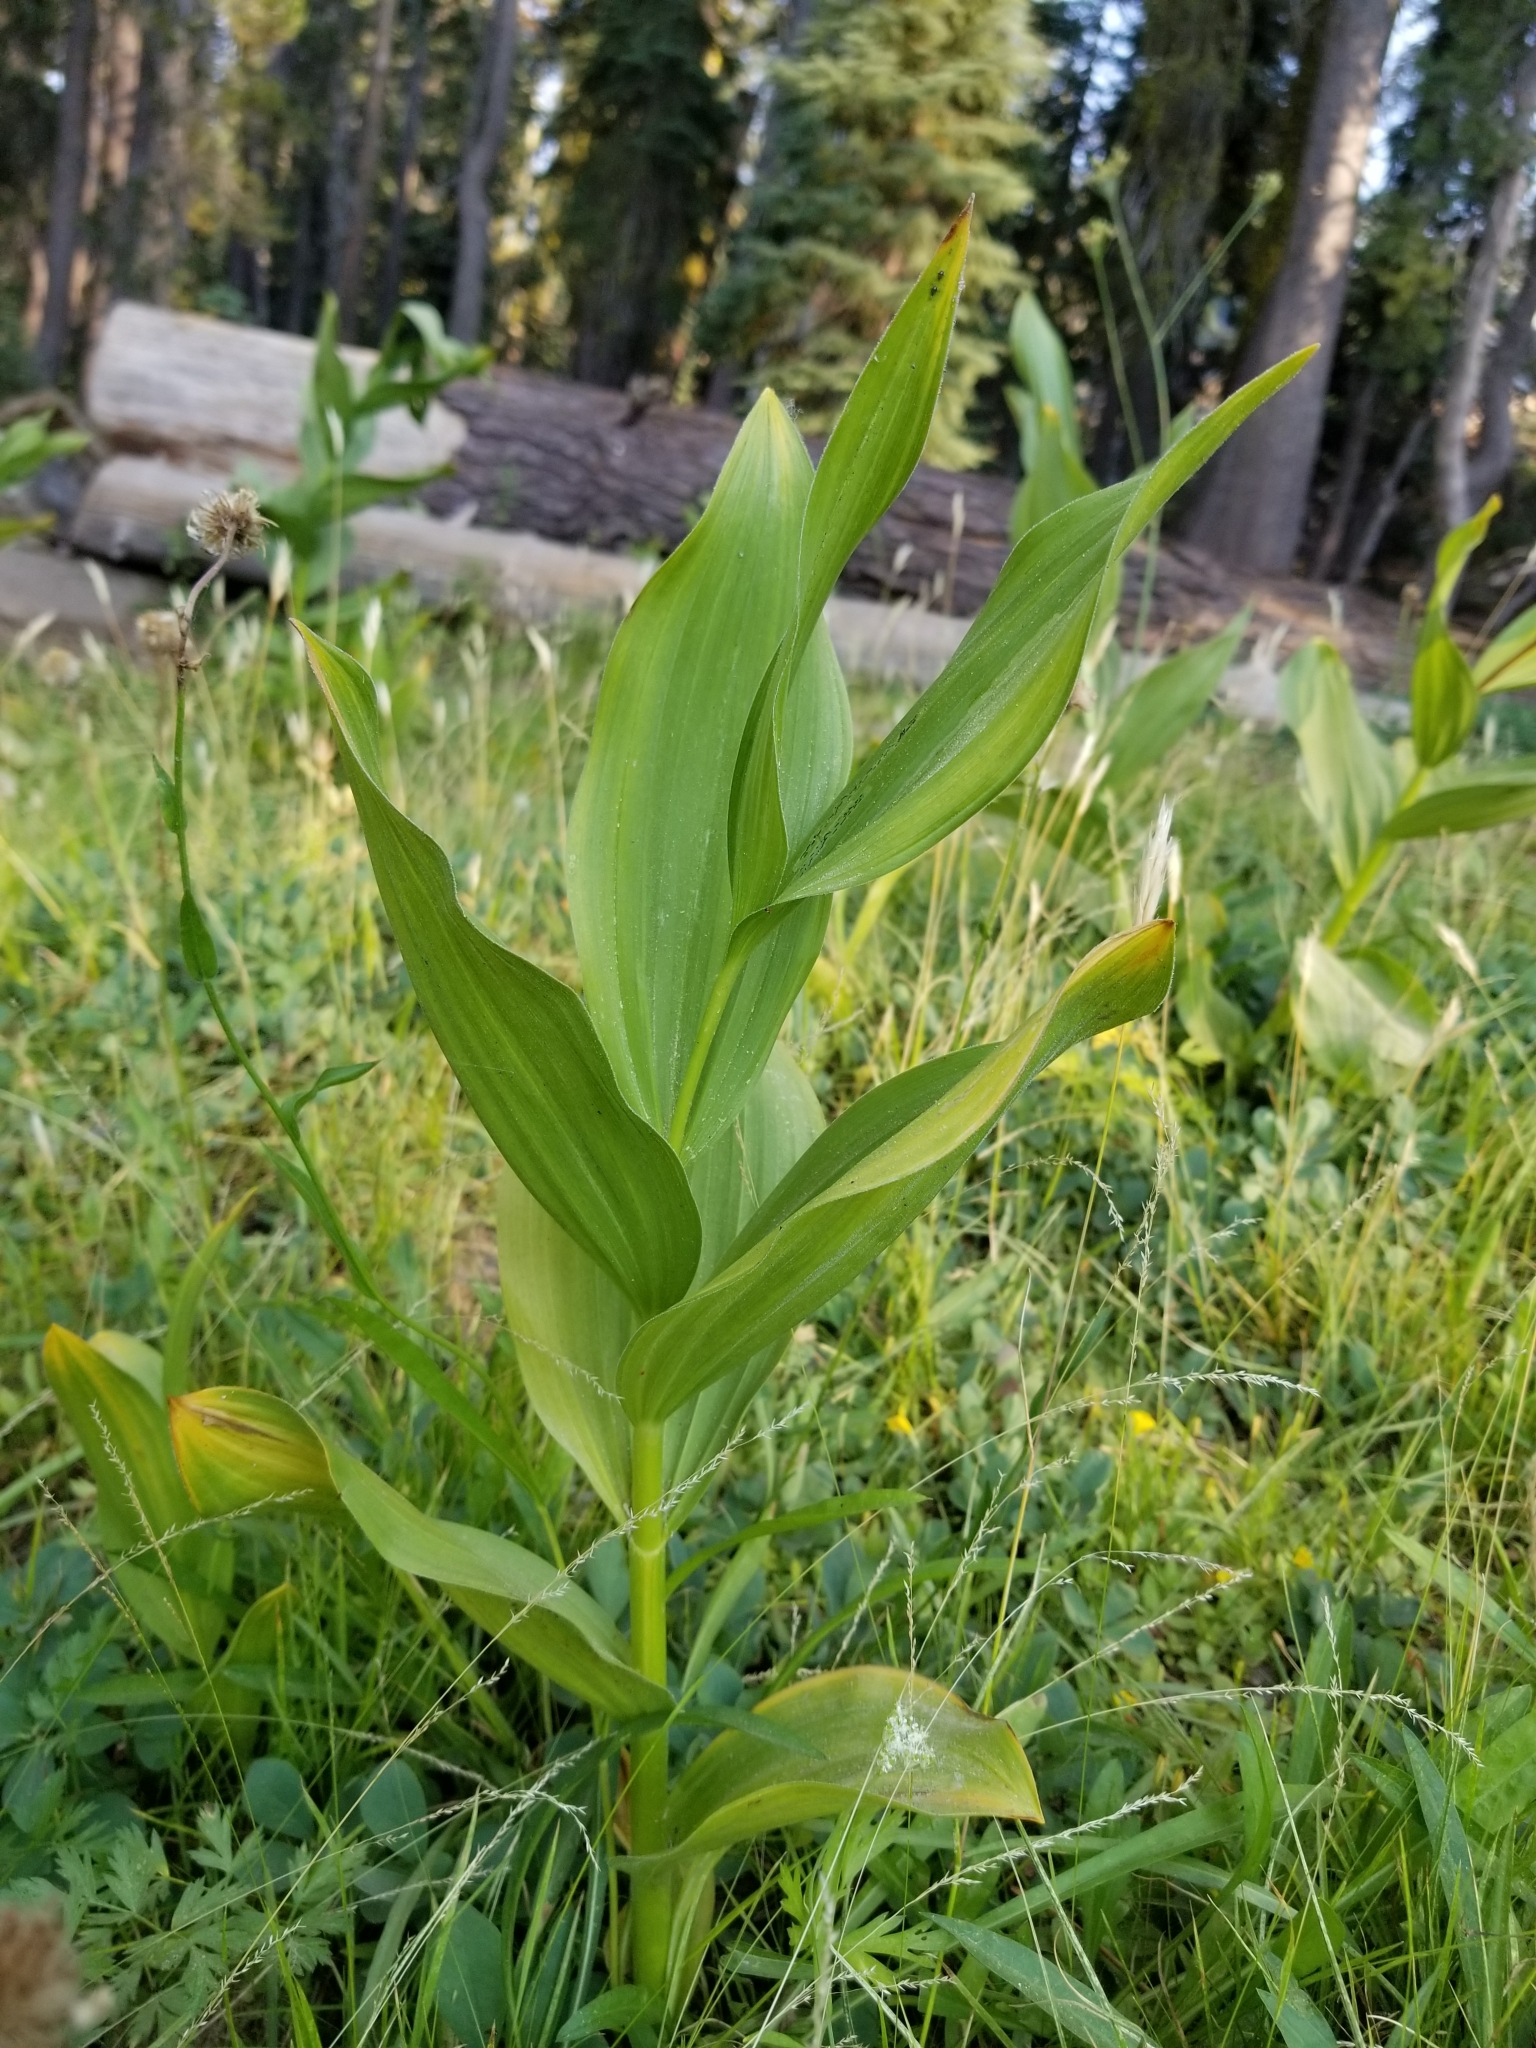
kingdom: Plantae
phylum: Tracheophyta
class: Liliopsida
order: Liliales
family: Melanthiaceae
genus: Veratrum
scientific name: Veratrum californicum
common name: California veratrum
